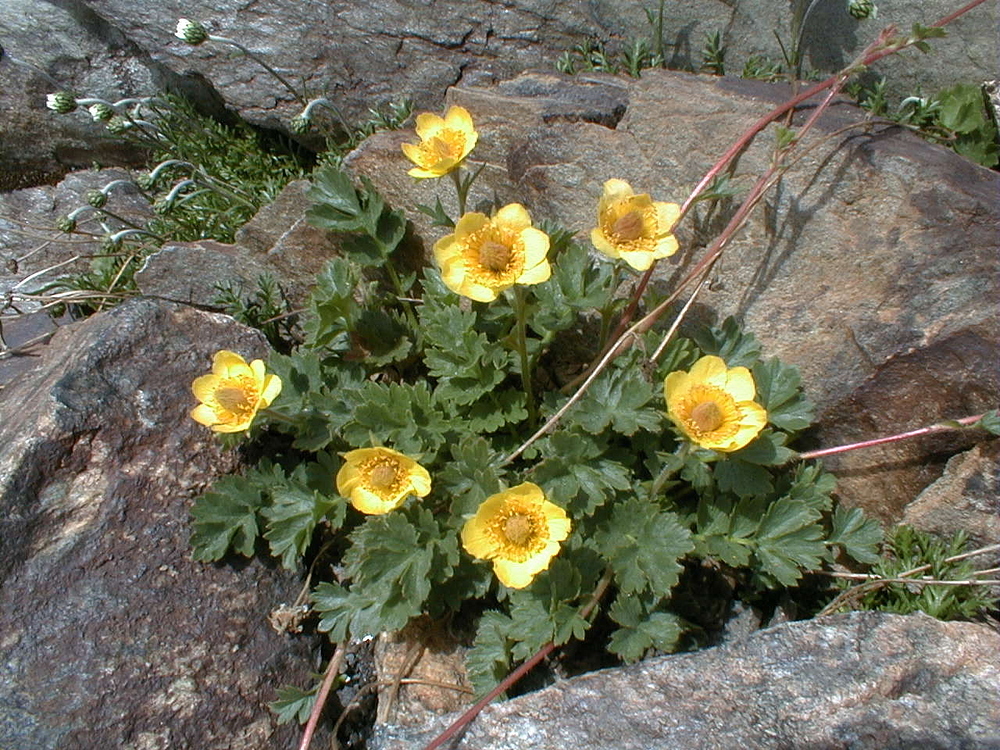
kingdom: Plantae
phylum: Tracheophyta
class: Magnoliopsida
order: Rosales
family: Rosaceae
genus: Geum
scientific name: Geum reptans
